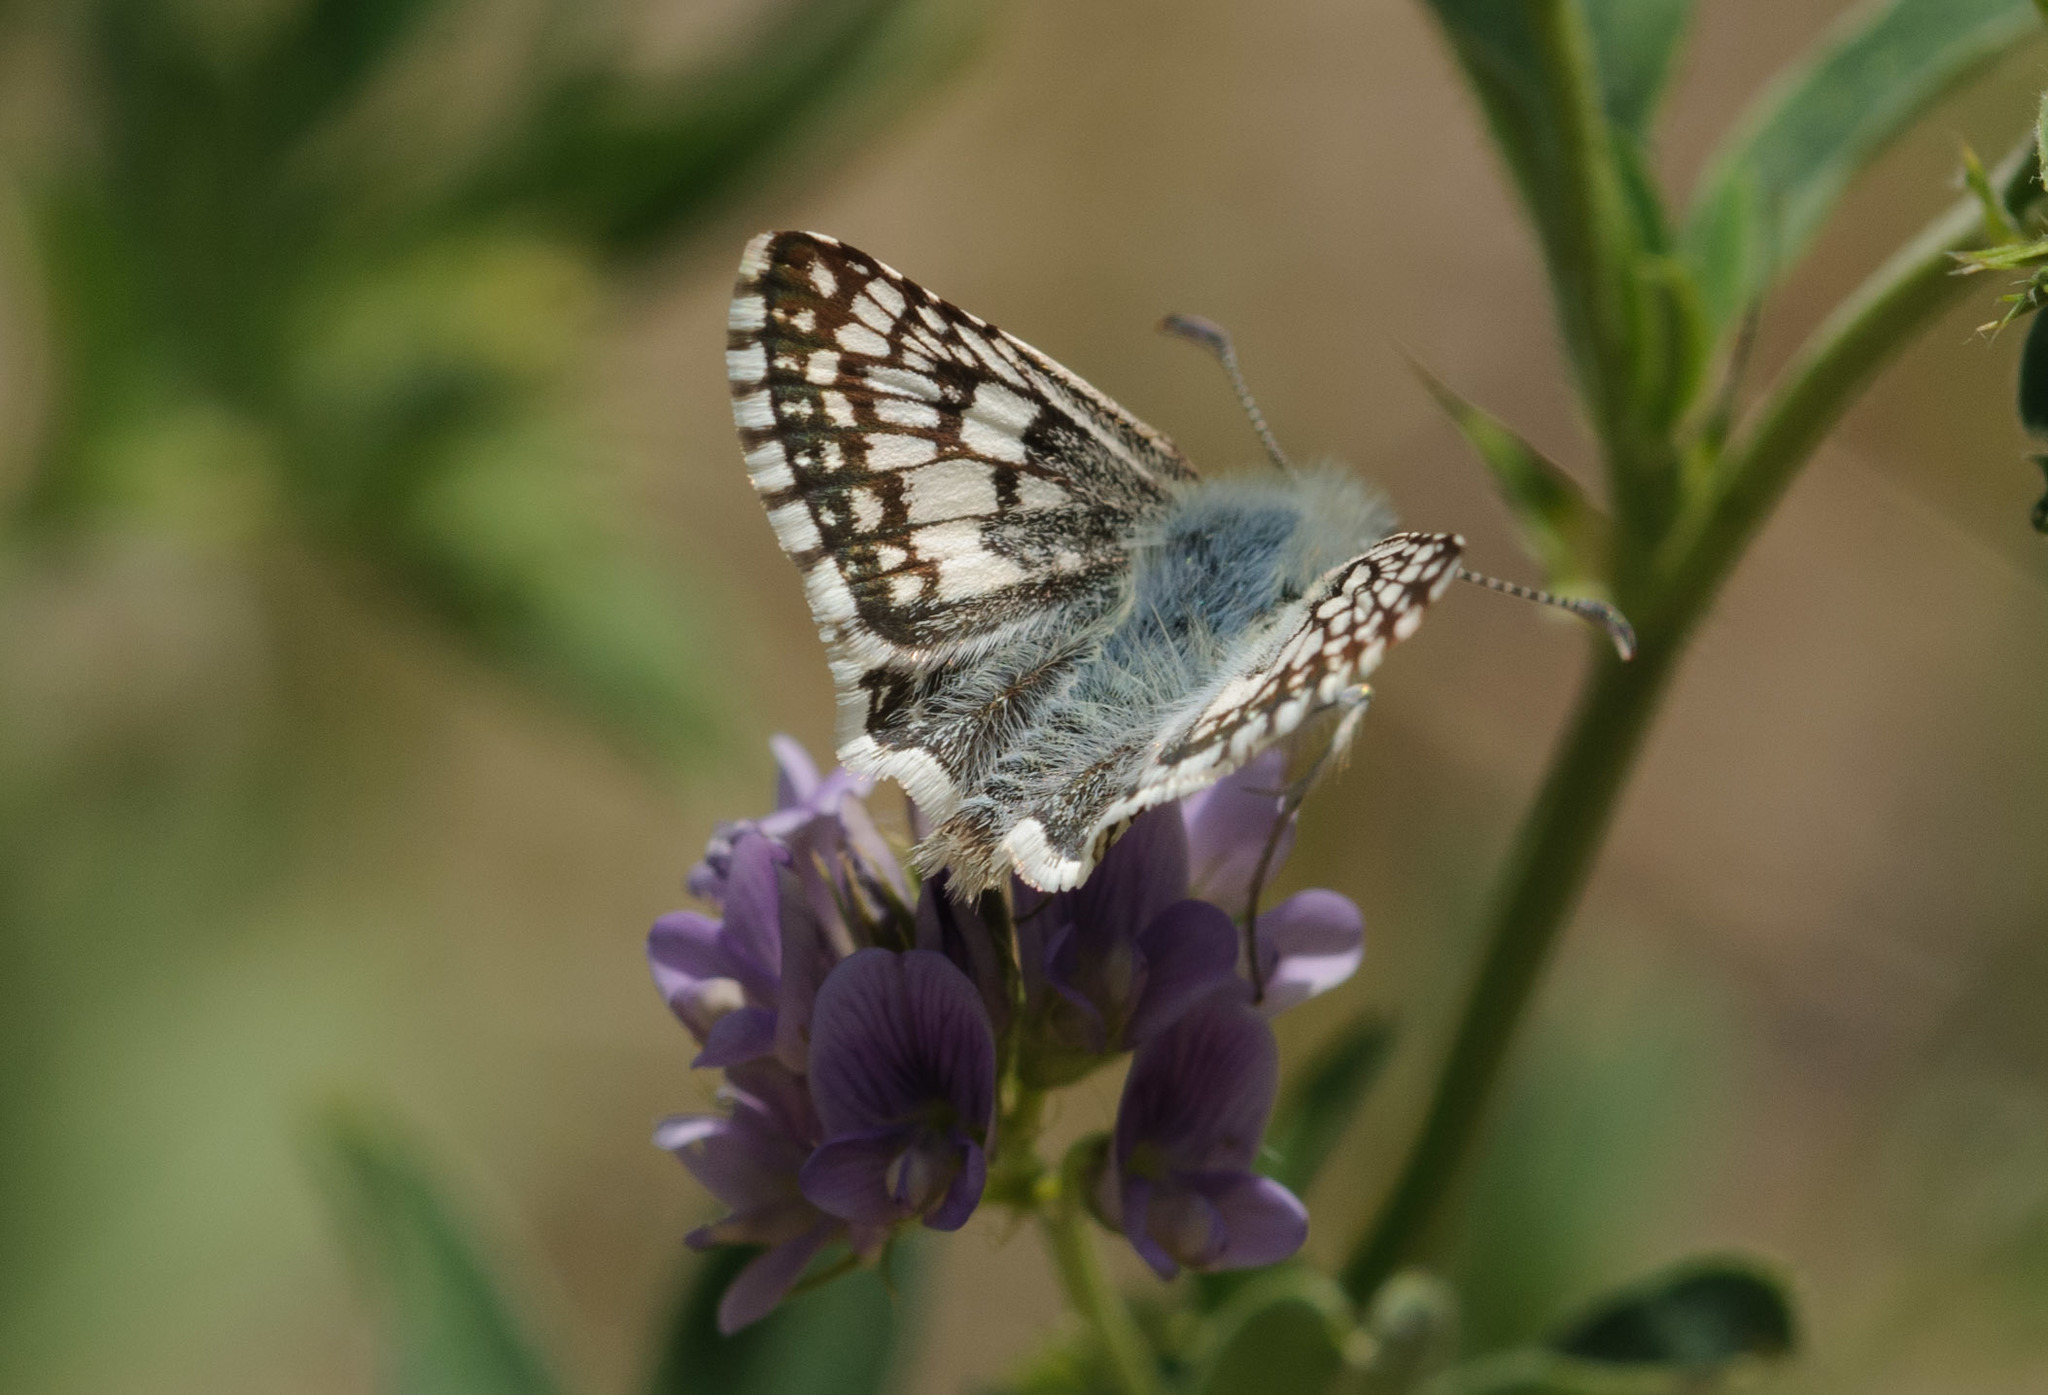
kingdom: Animalia
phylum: Arthropoda
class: Insecta
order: Lepidoptera
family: Hesperiidae
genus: Burnsius
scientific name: Burnsius communis
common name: Common checkered-skipper
